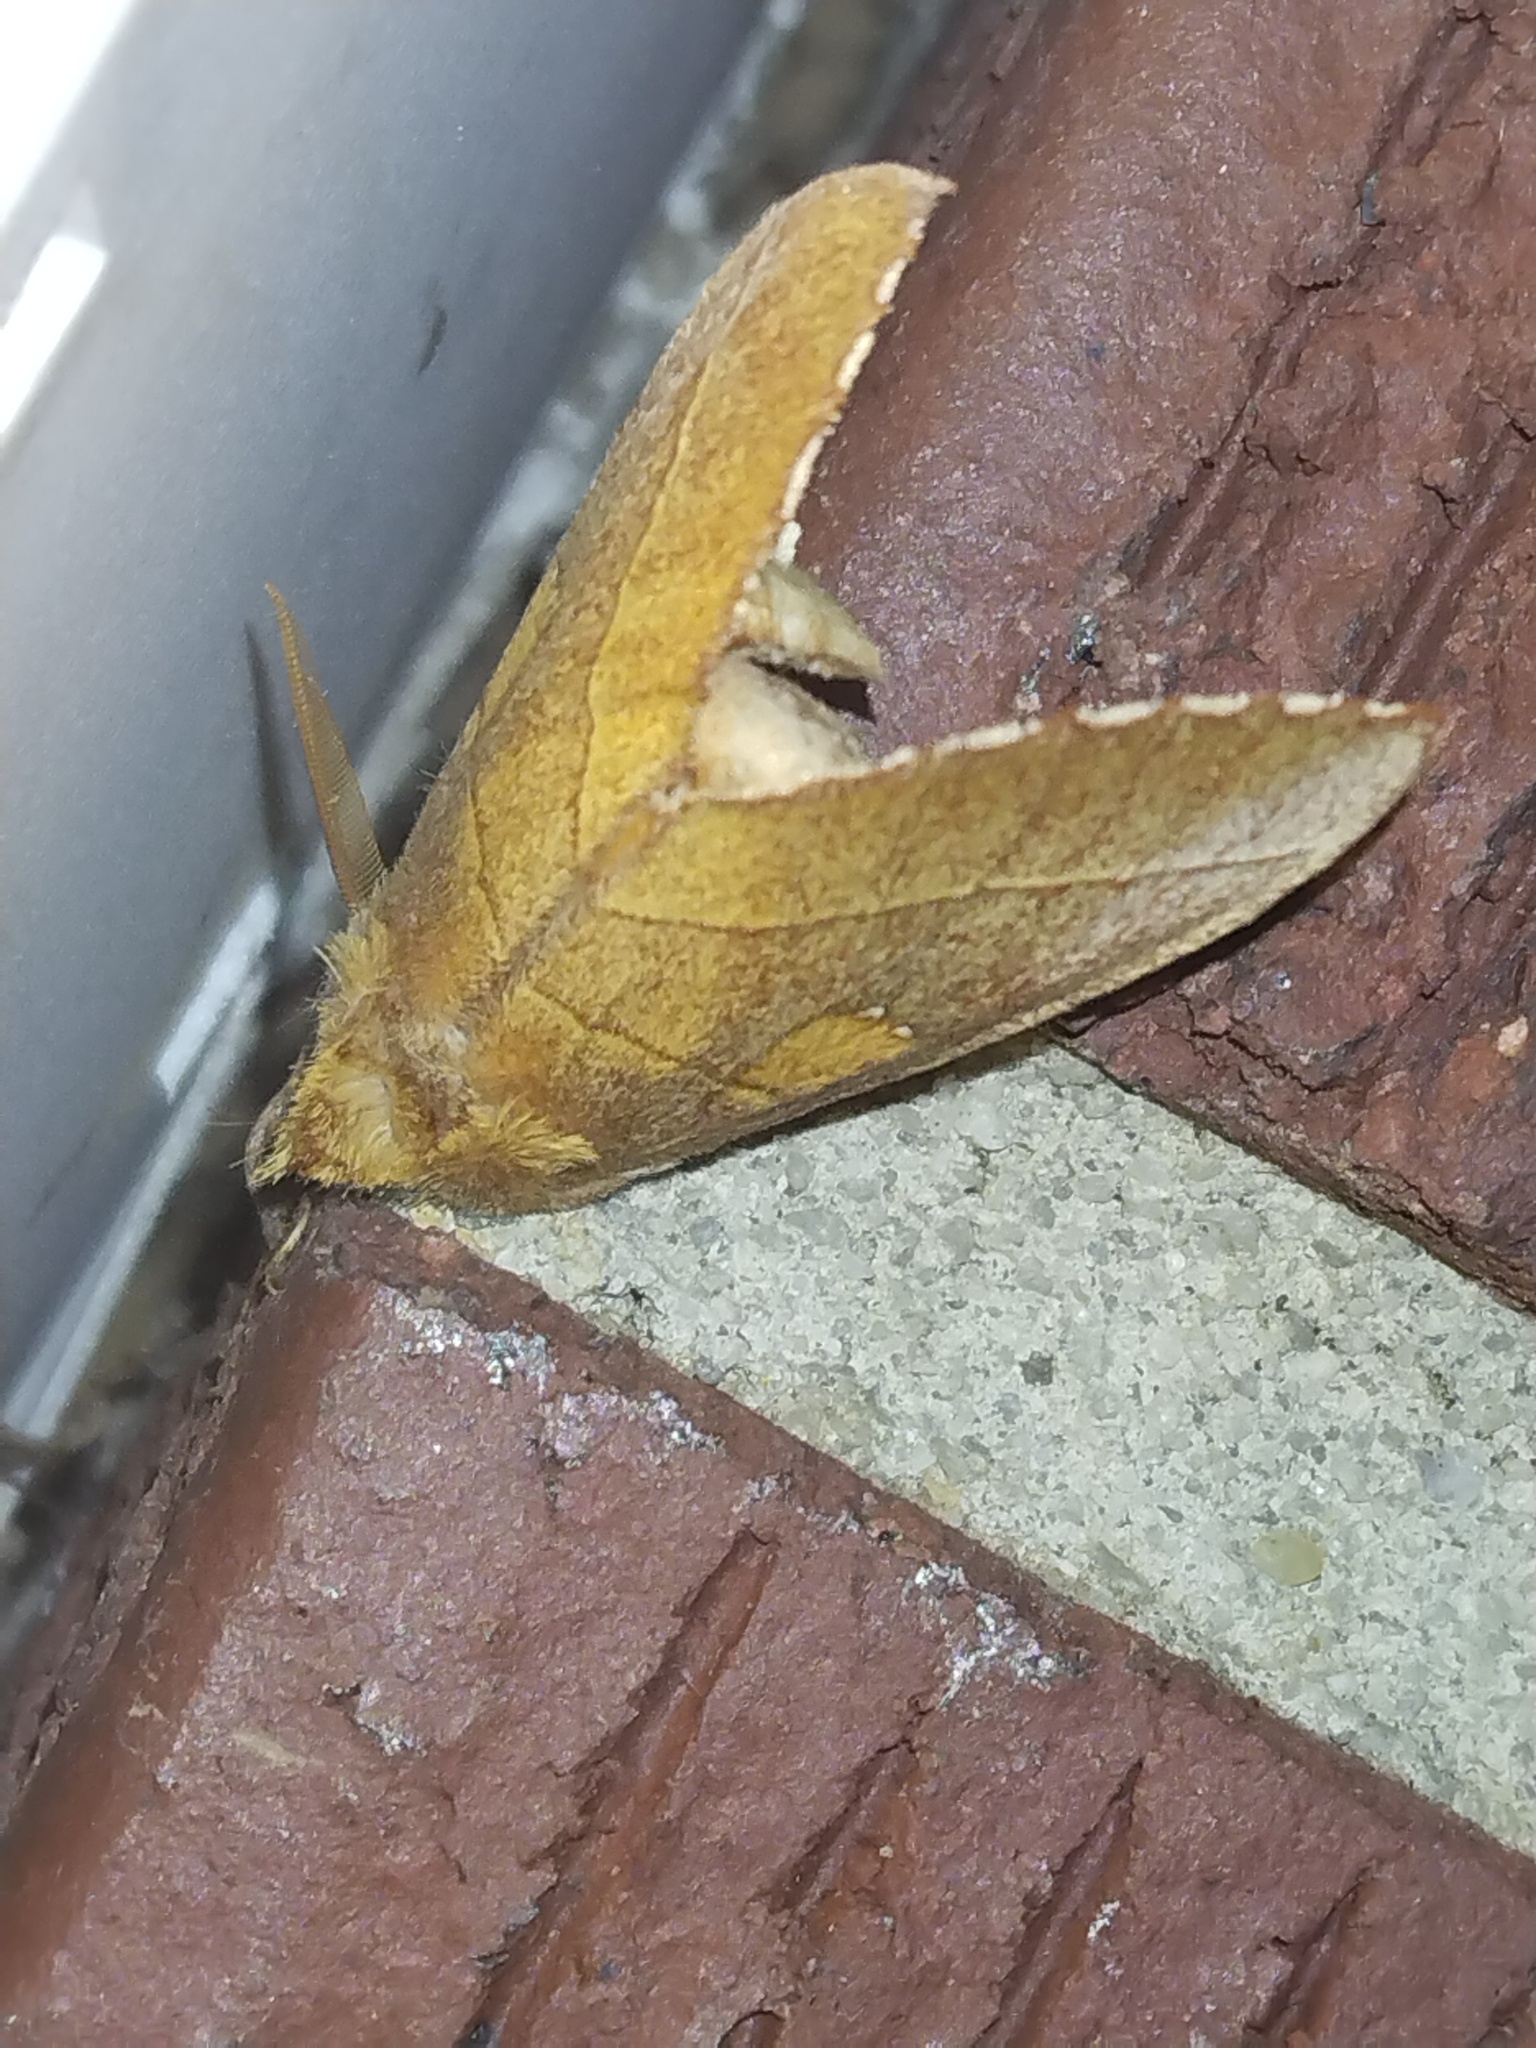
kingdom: Animalia
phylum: Arthropoda
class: Insecta
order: Lepidoptera
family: Notodontidae
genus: Nadata
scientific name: Nadata gibbosa
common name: White-dotted prominent
